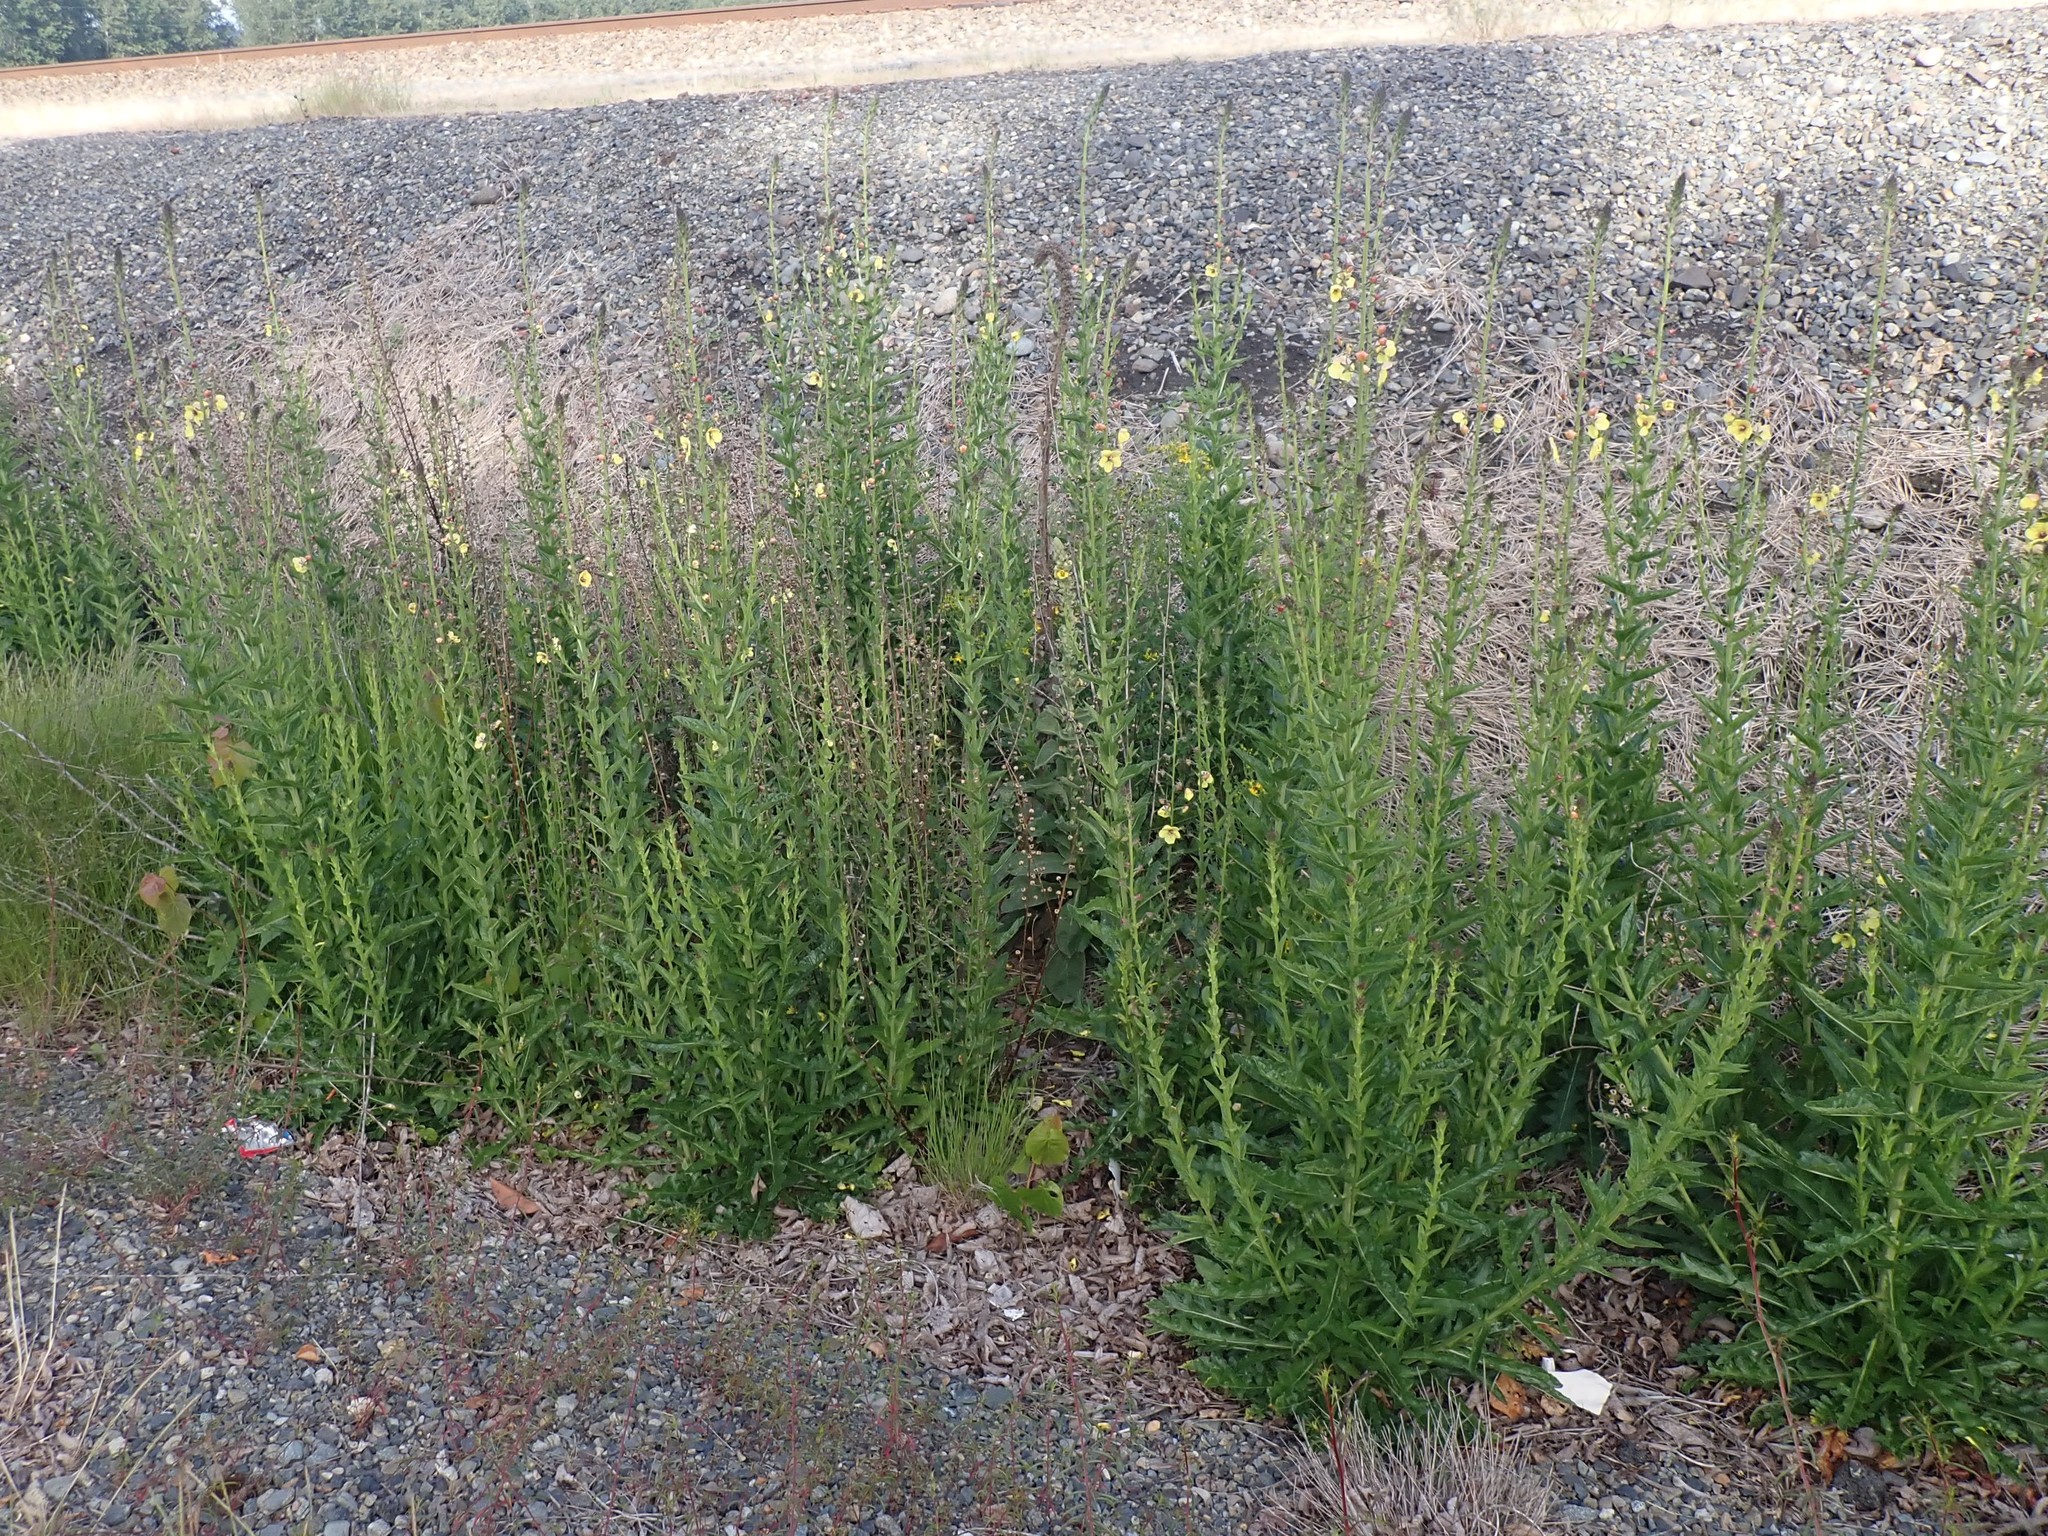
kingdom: Plantae
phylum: Tracheophyta
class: Magnoliopsida
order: Lamiales
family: Scrophulariaceae
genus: Verbascum
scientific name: Verbascum blattaria
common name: Moth mullein
